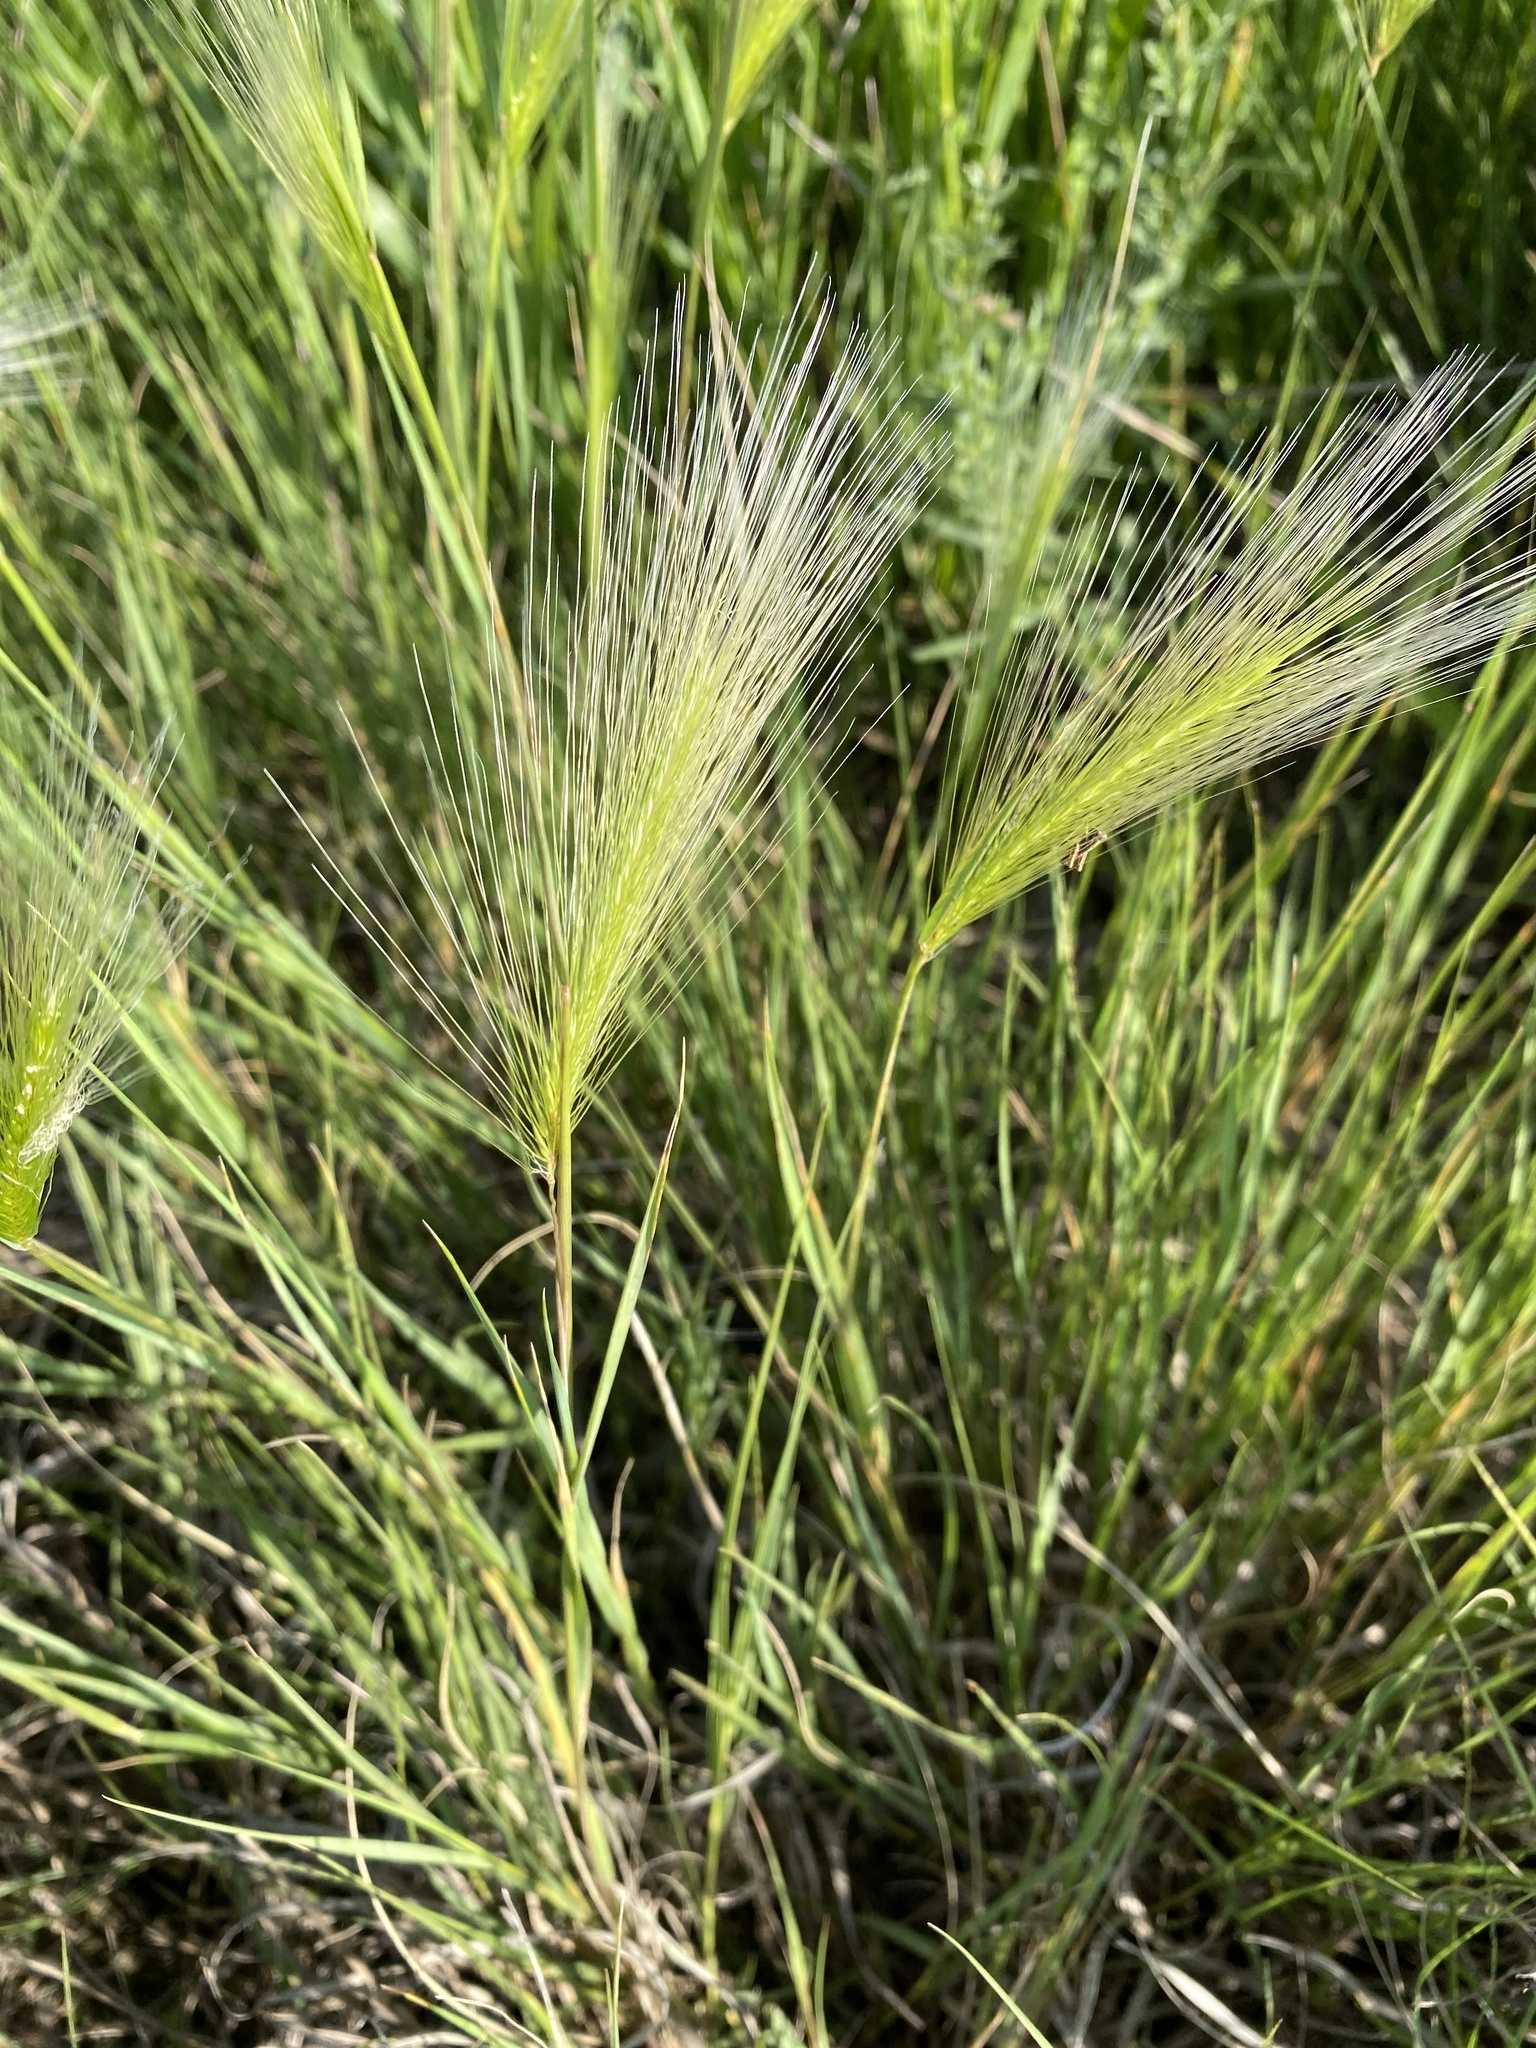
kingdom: Plantae
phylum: Tracheophyta
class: Liliopsida
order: Poales
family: Poaceae
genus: Hordeum
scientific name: Hordeum jubatum
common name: Foxtail barley
